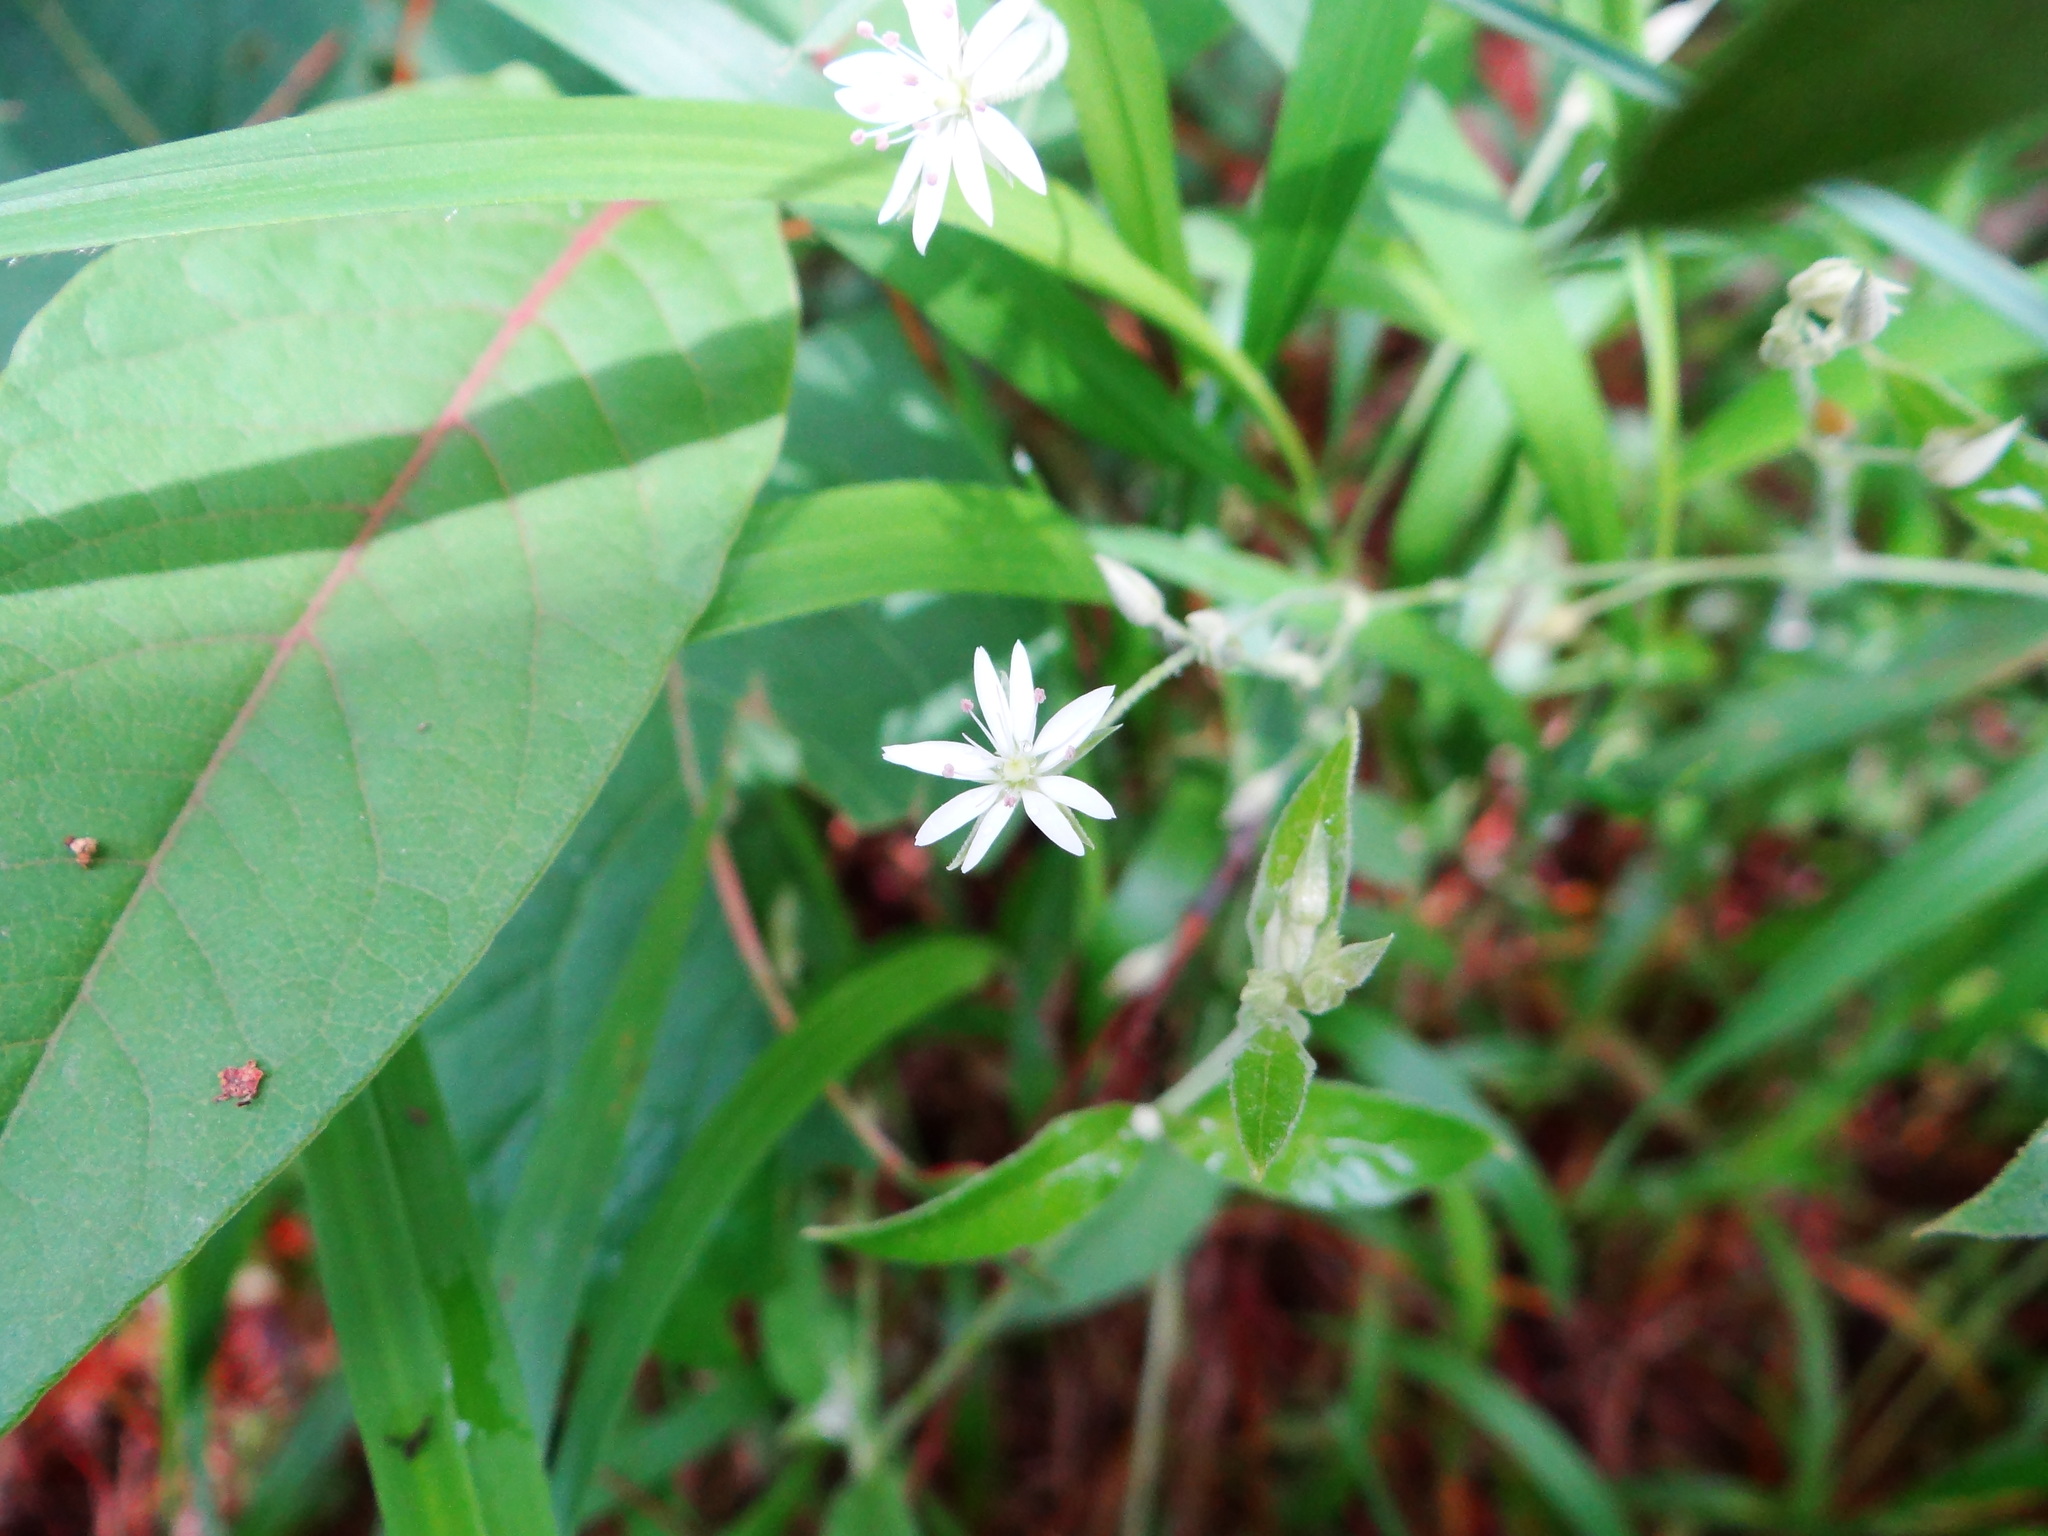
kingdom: Plantae
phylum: Tracheophyta
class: Magnoliopsida
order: Caryophyllales
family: Caryophyllaceae
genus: Stellaria
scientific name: Stellaria vestita
